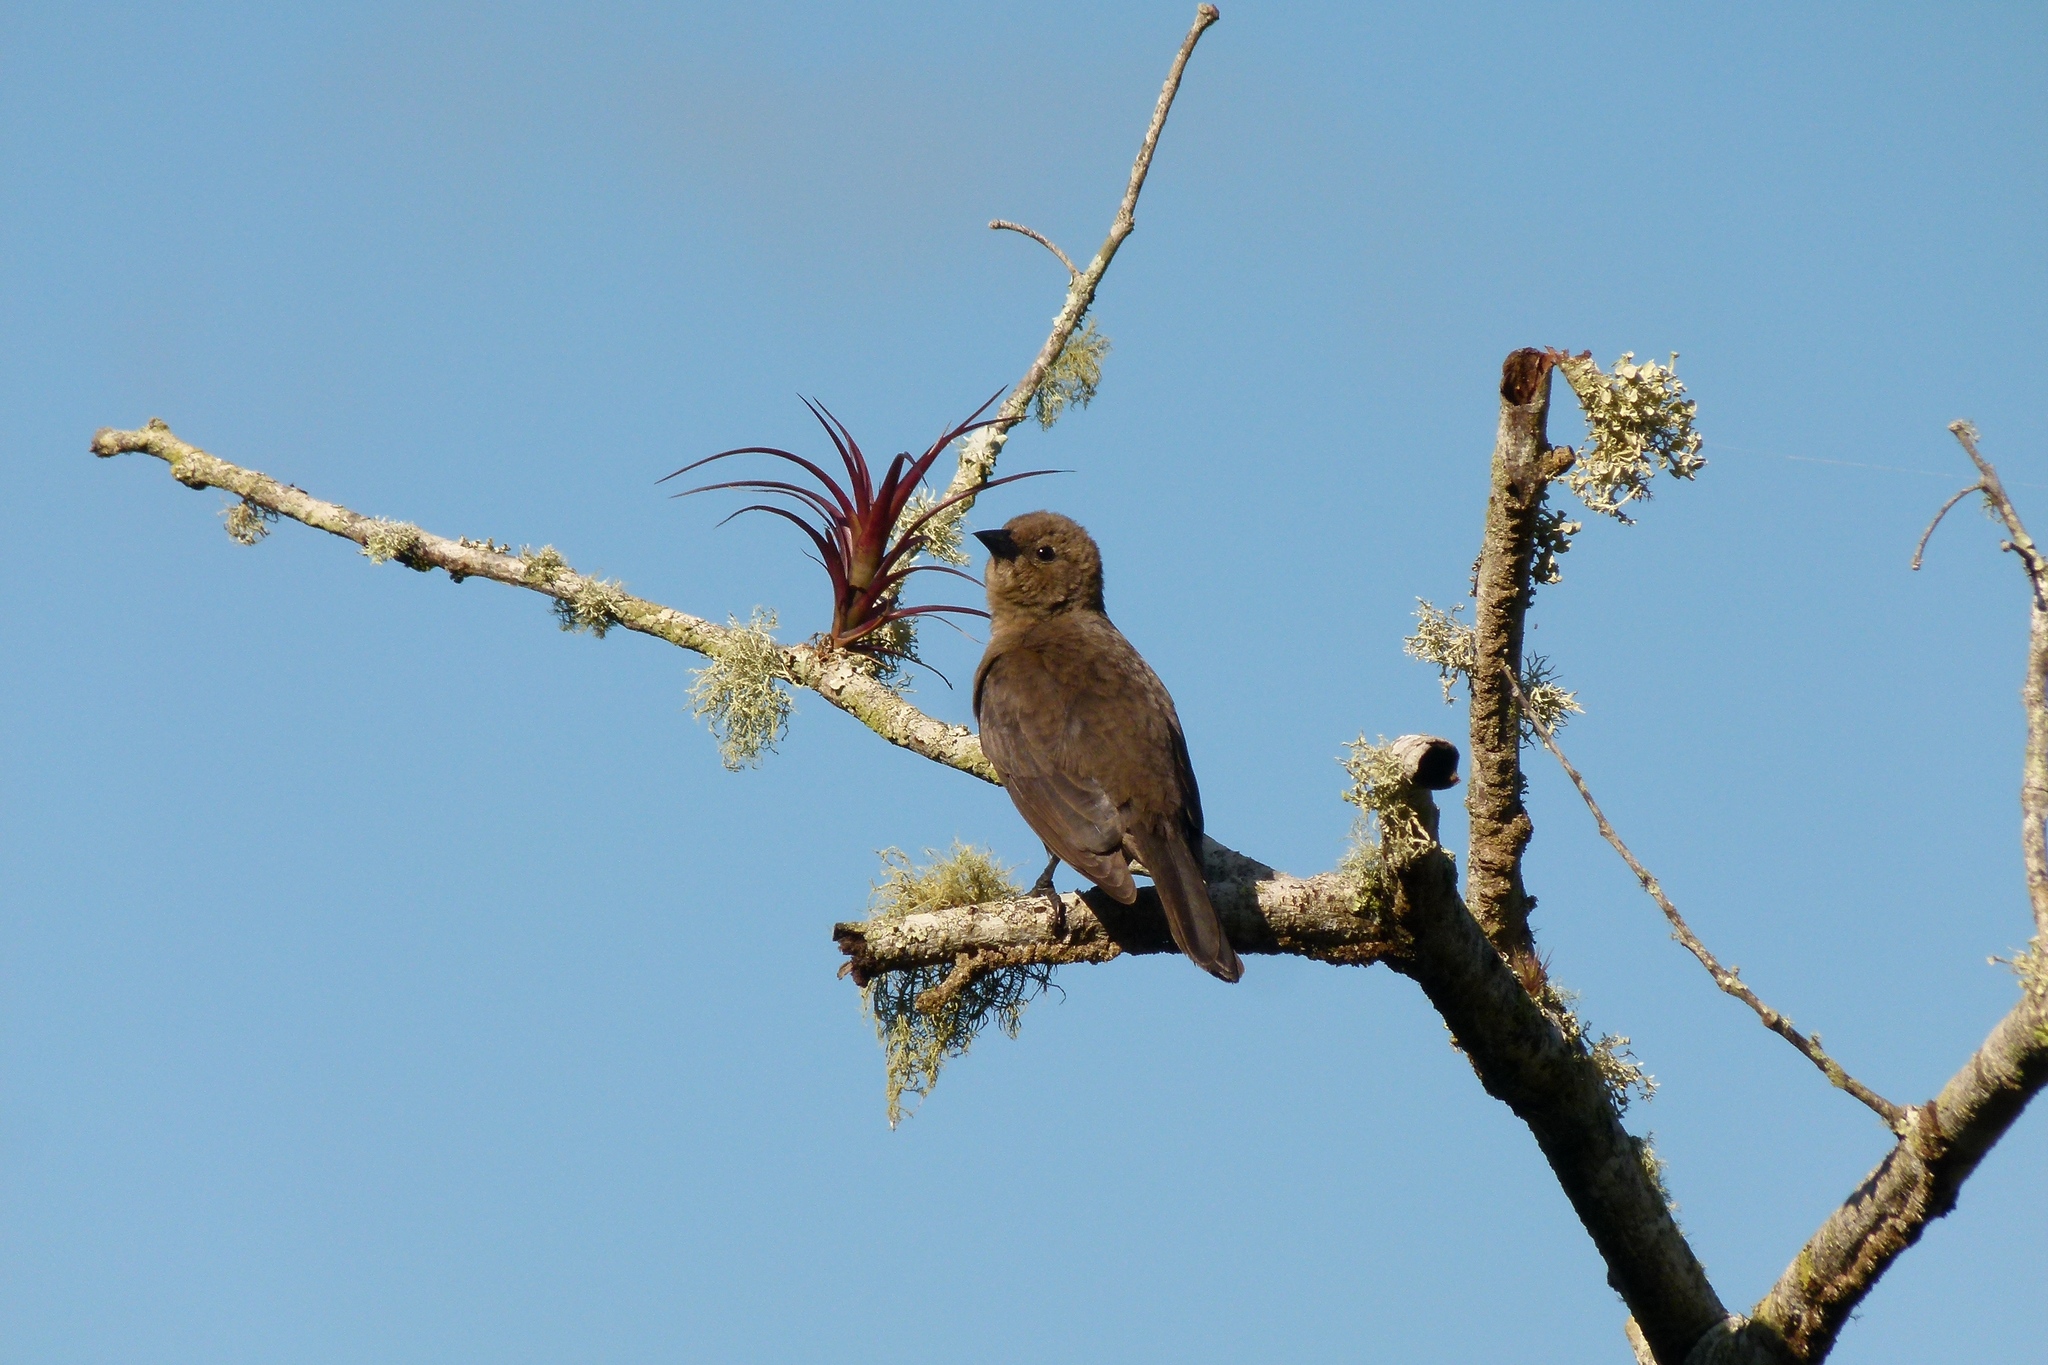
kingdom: Animalia
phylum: Chordata
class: Aves
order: Passeriformes
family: Icteridae
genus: Molothrus
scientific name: Molothrus bonariensis
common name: Shiny cowbird
